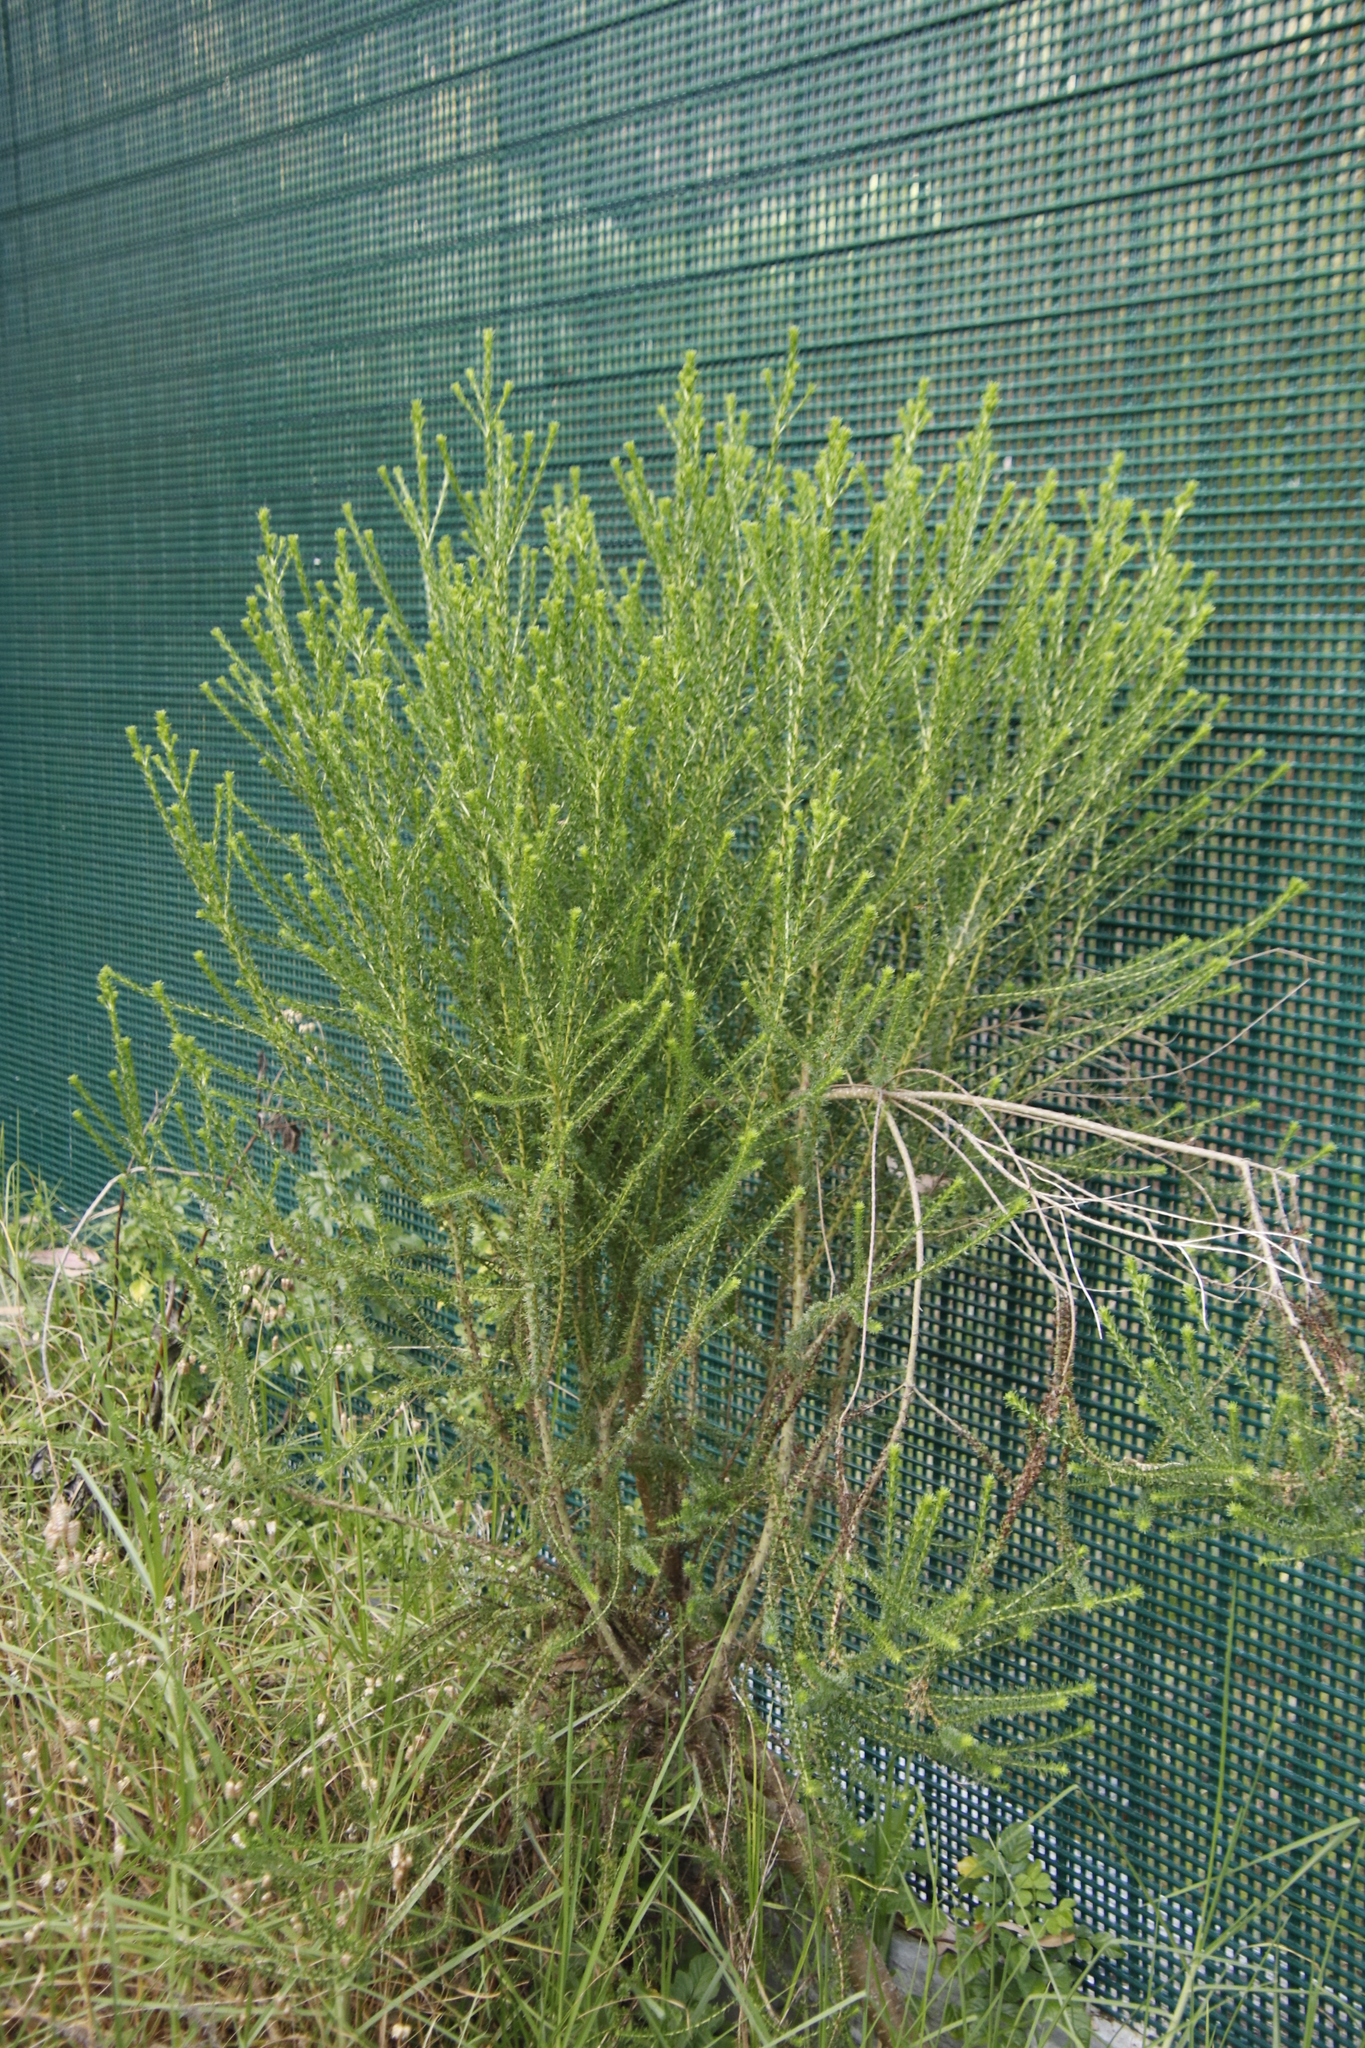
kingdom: Plantae
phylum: Tracheophyta
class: Magnoliopsida
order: Asterales
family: Asteraceae
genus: Euryops
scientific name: Euryops virgineus
